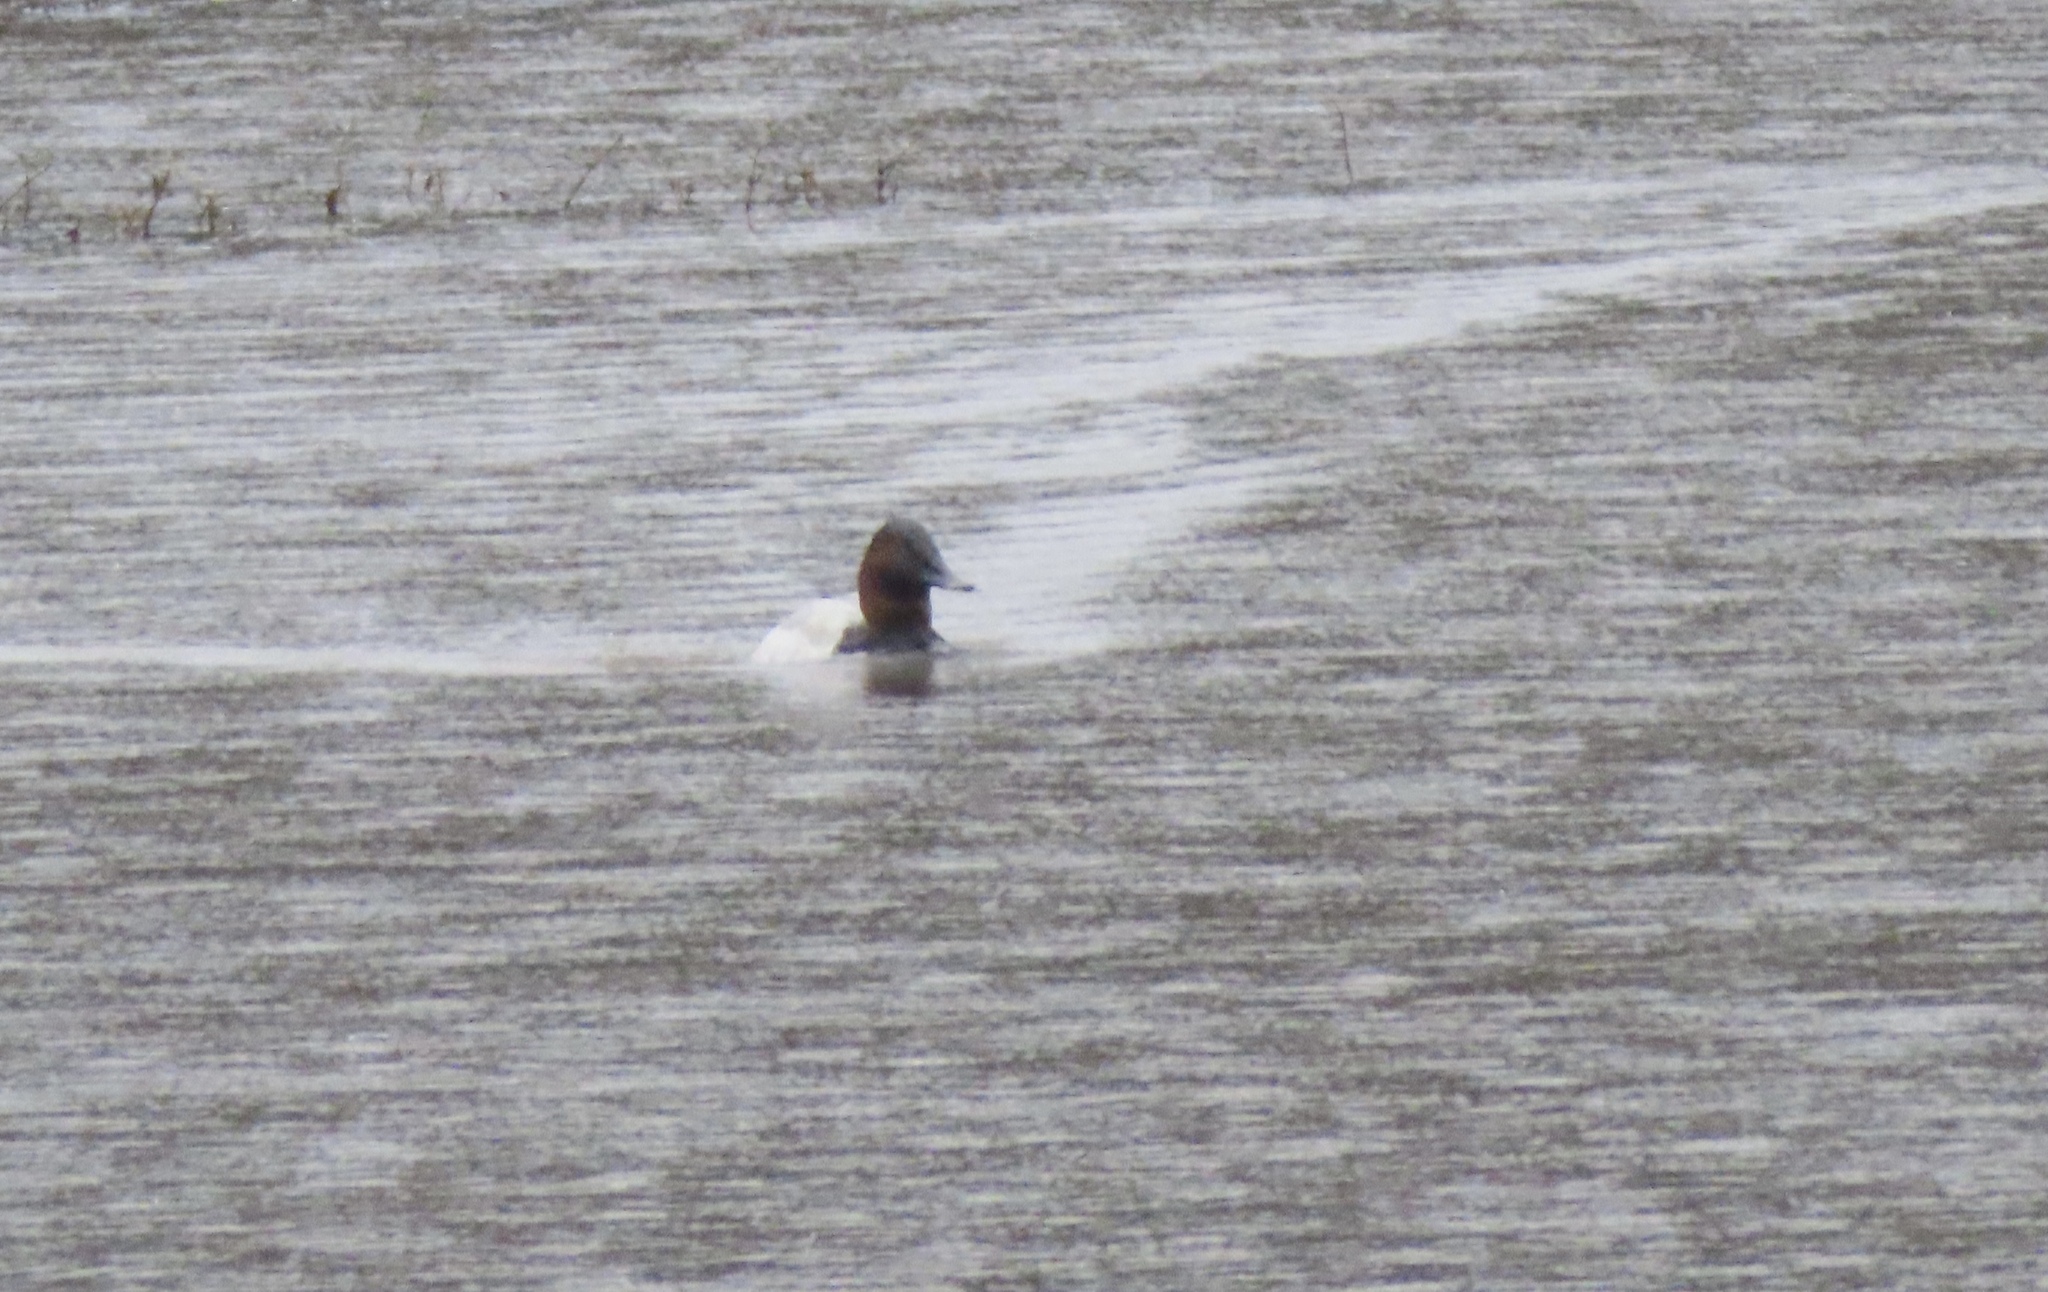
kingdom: Animalia
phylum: Chordata
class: Aves
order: Anseriformes
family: Anatidae
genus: Aythya
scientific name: Aythya valisineria
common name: Canvasback
